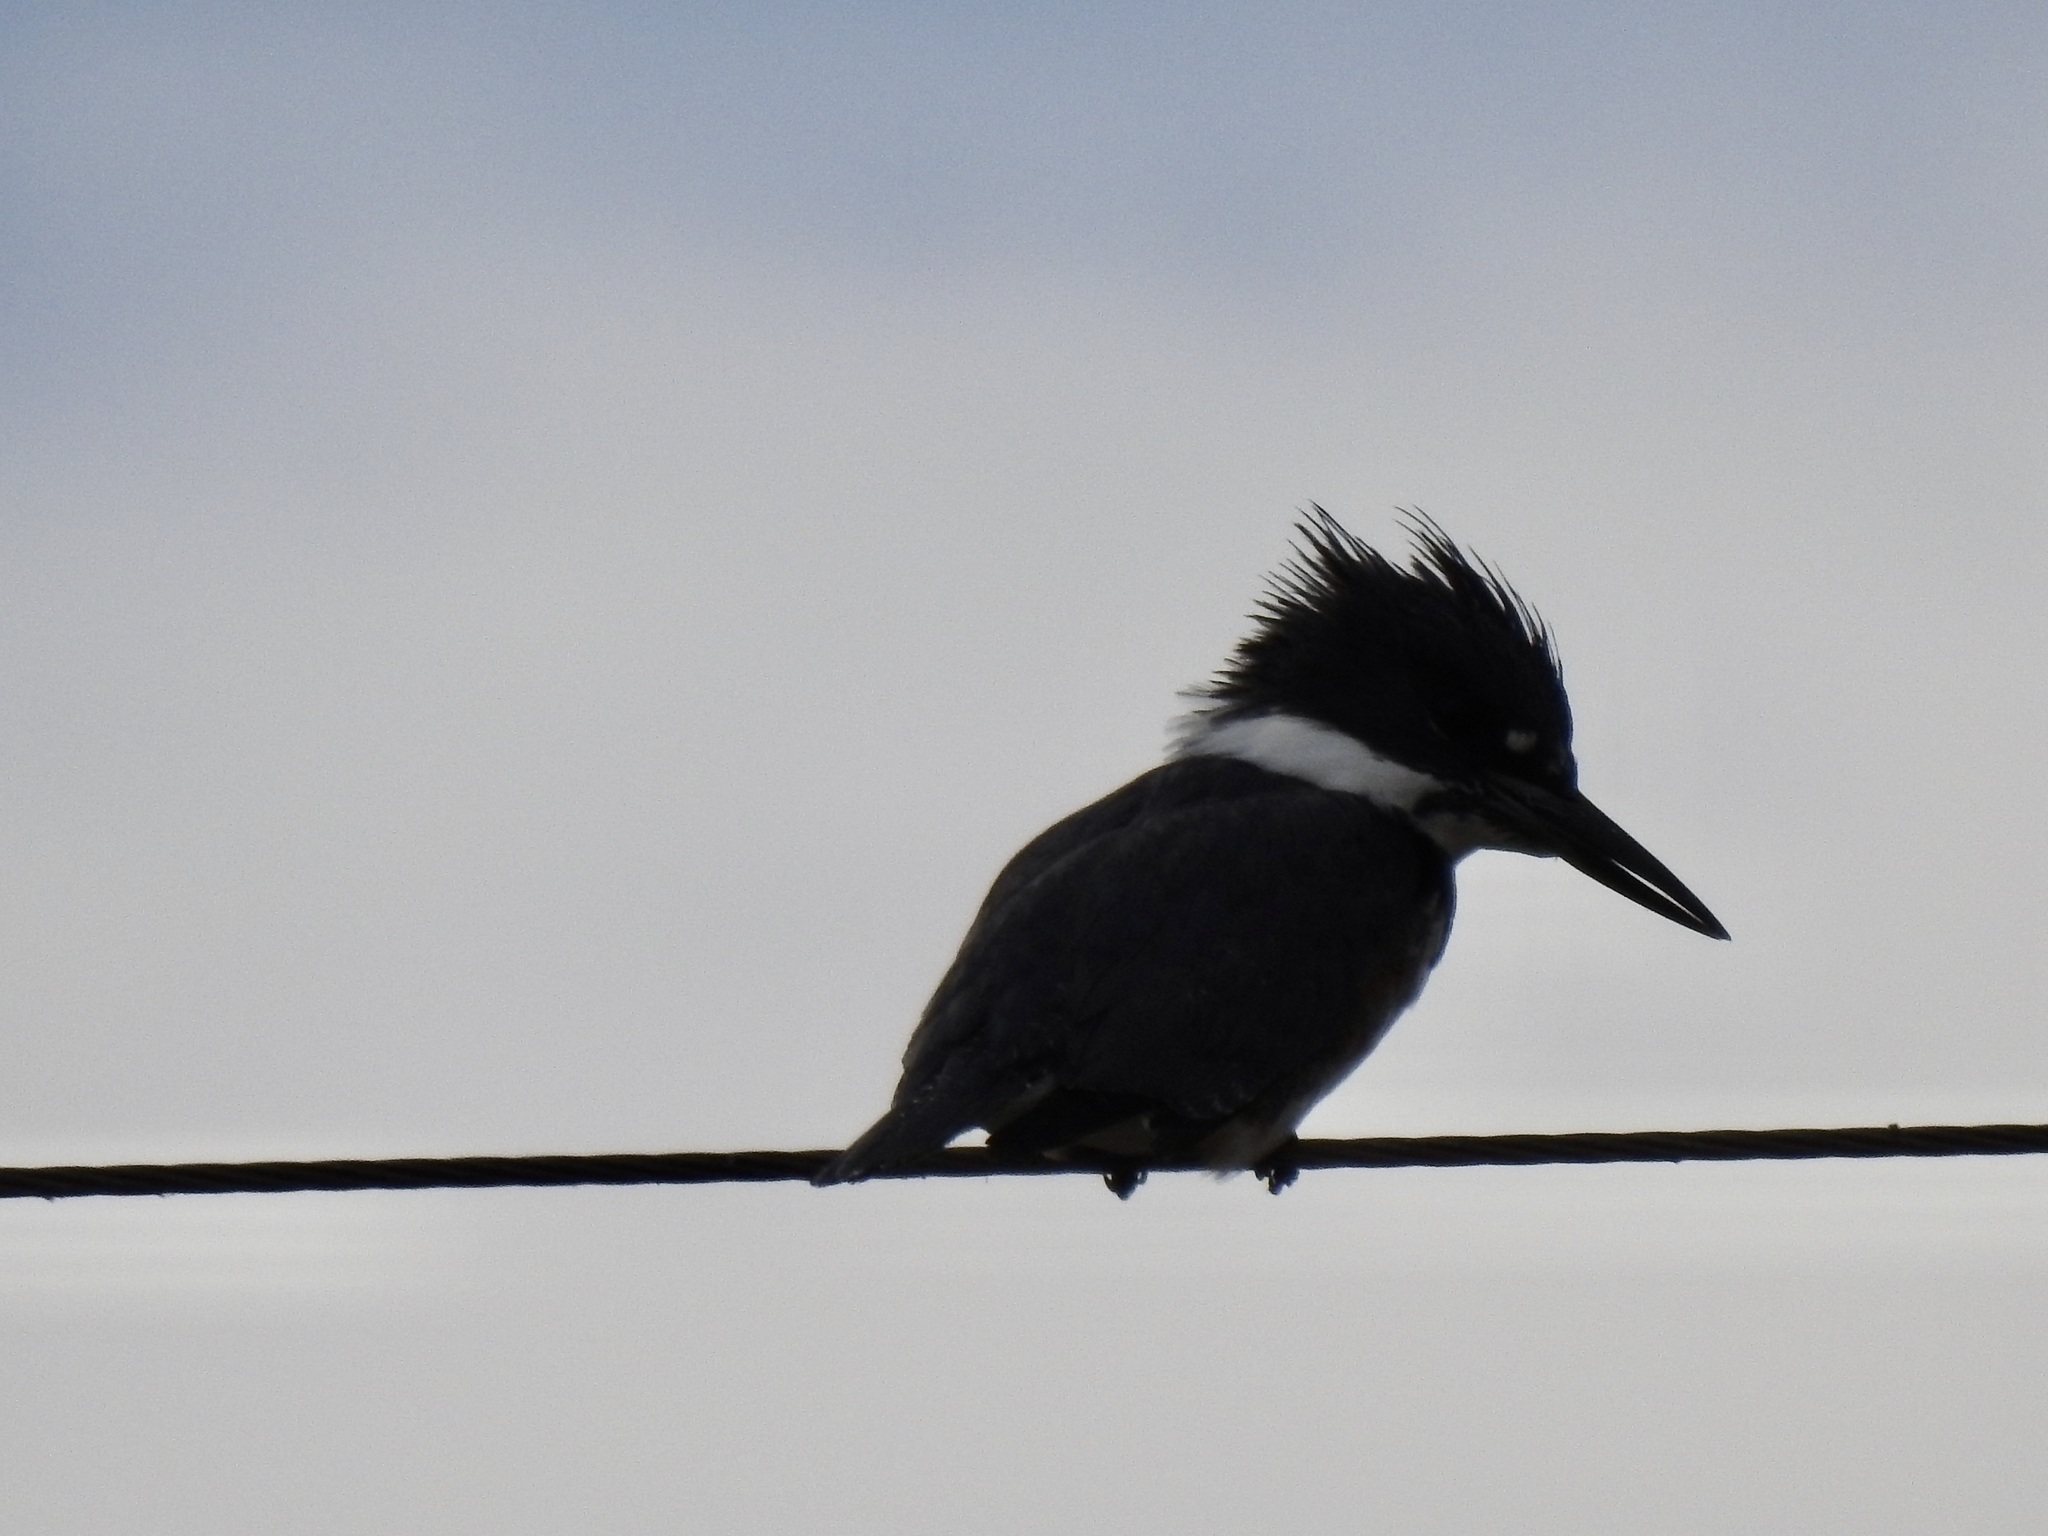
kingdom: Animalia
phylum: Chordata
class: Aves
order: Coraciiformes
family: Alcedinidae
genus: Megaceryle
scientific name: Megaceryle alcyon
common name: Belted kingfisher
